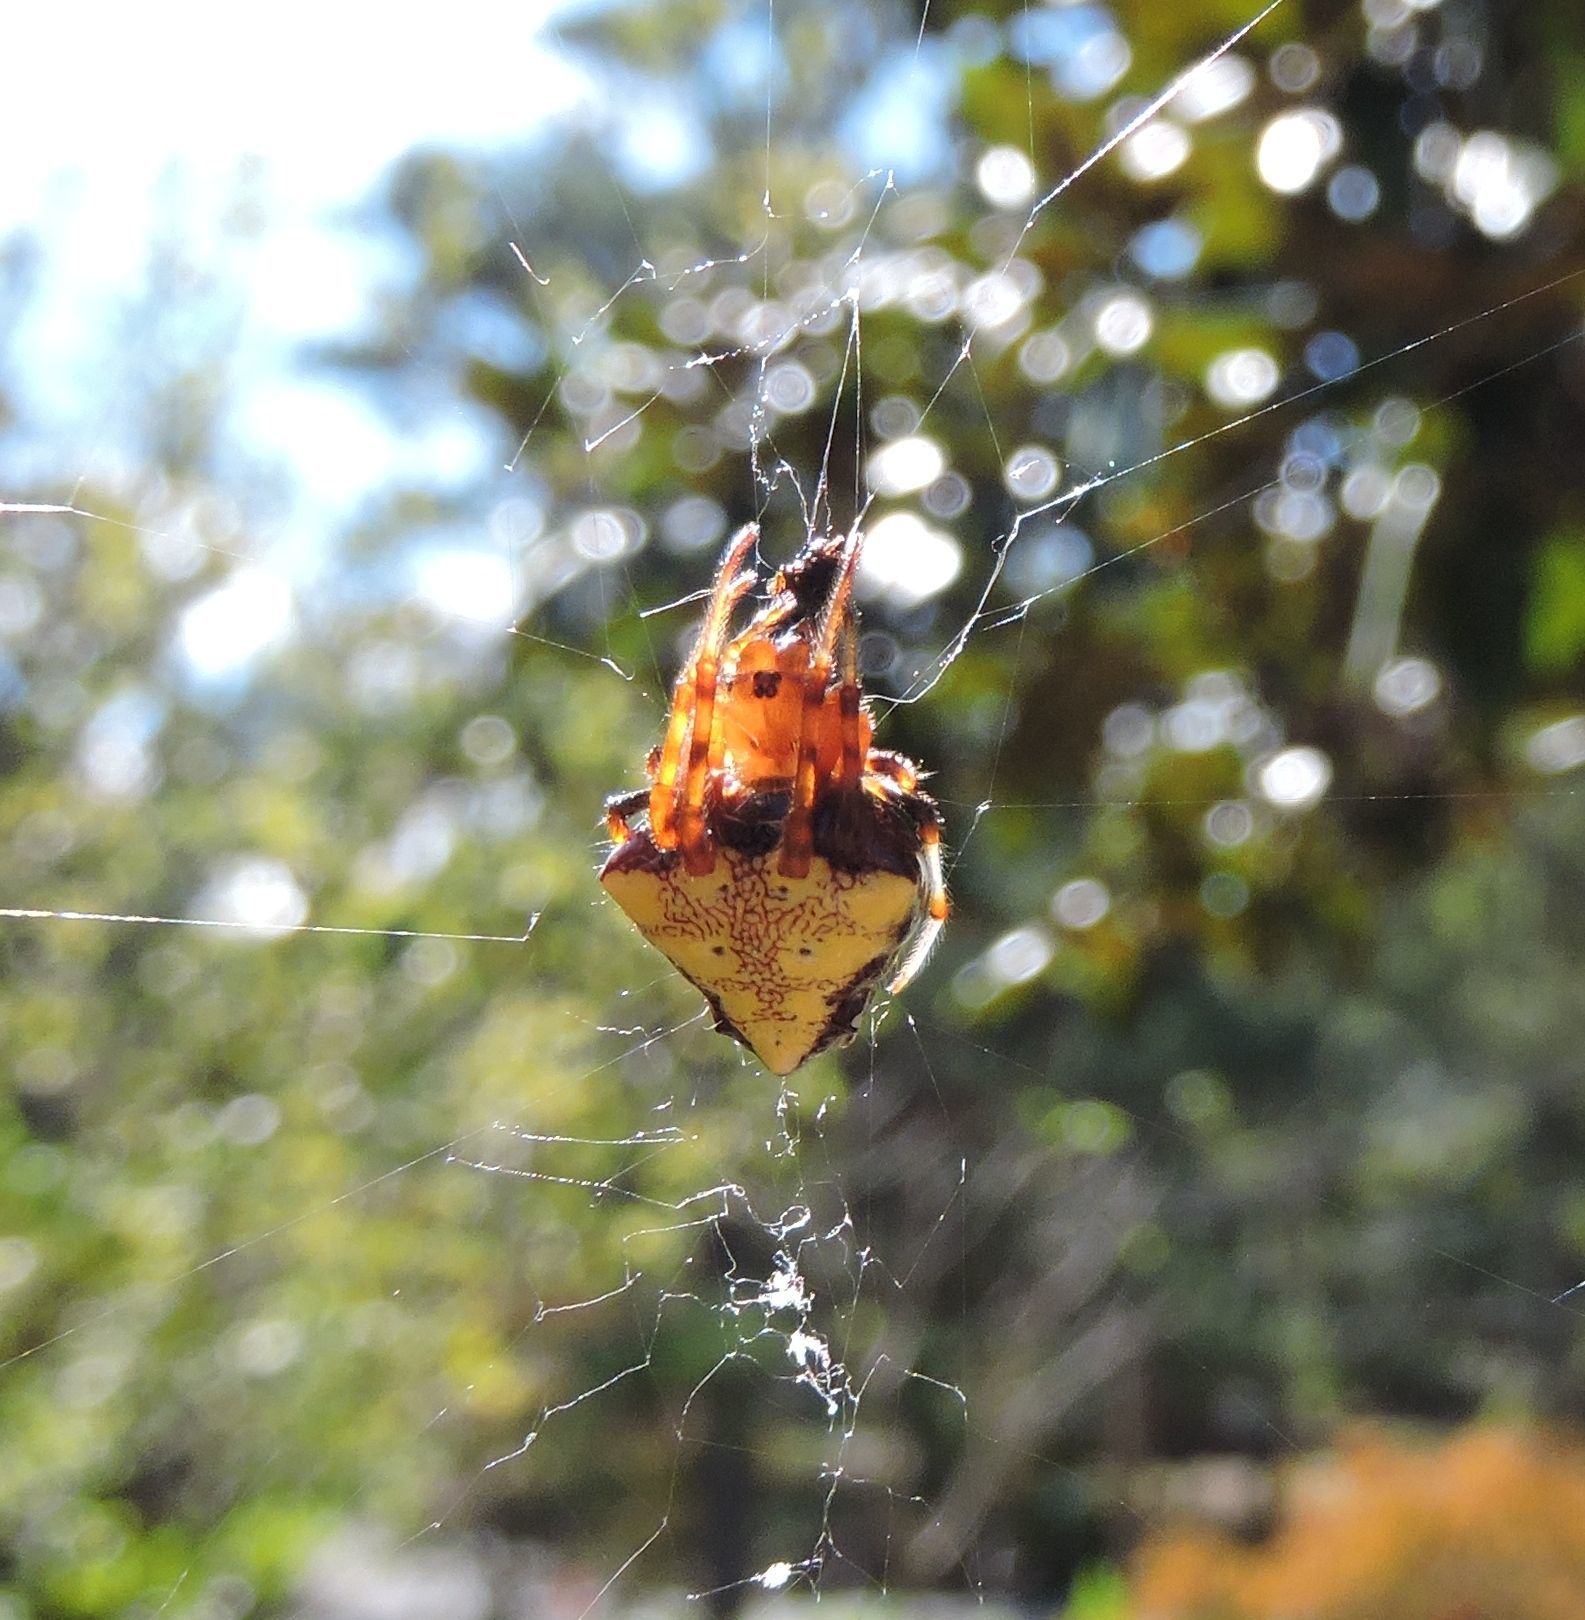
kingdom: Animalia
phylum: Arthropoda
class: Arachnida
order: Araneae
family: Araneidae
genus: Verrucosa
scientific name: Verrucosa arenata
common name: Orb weavers
